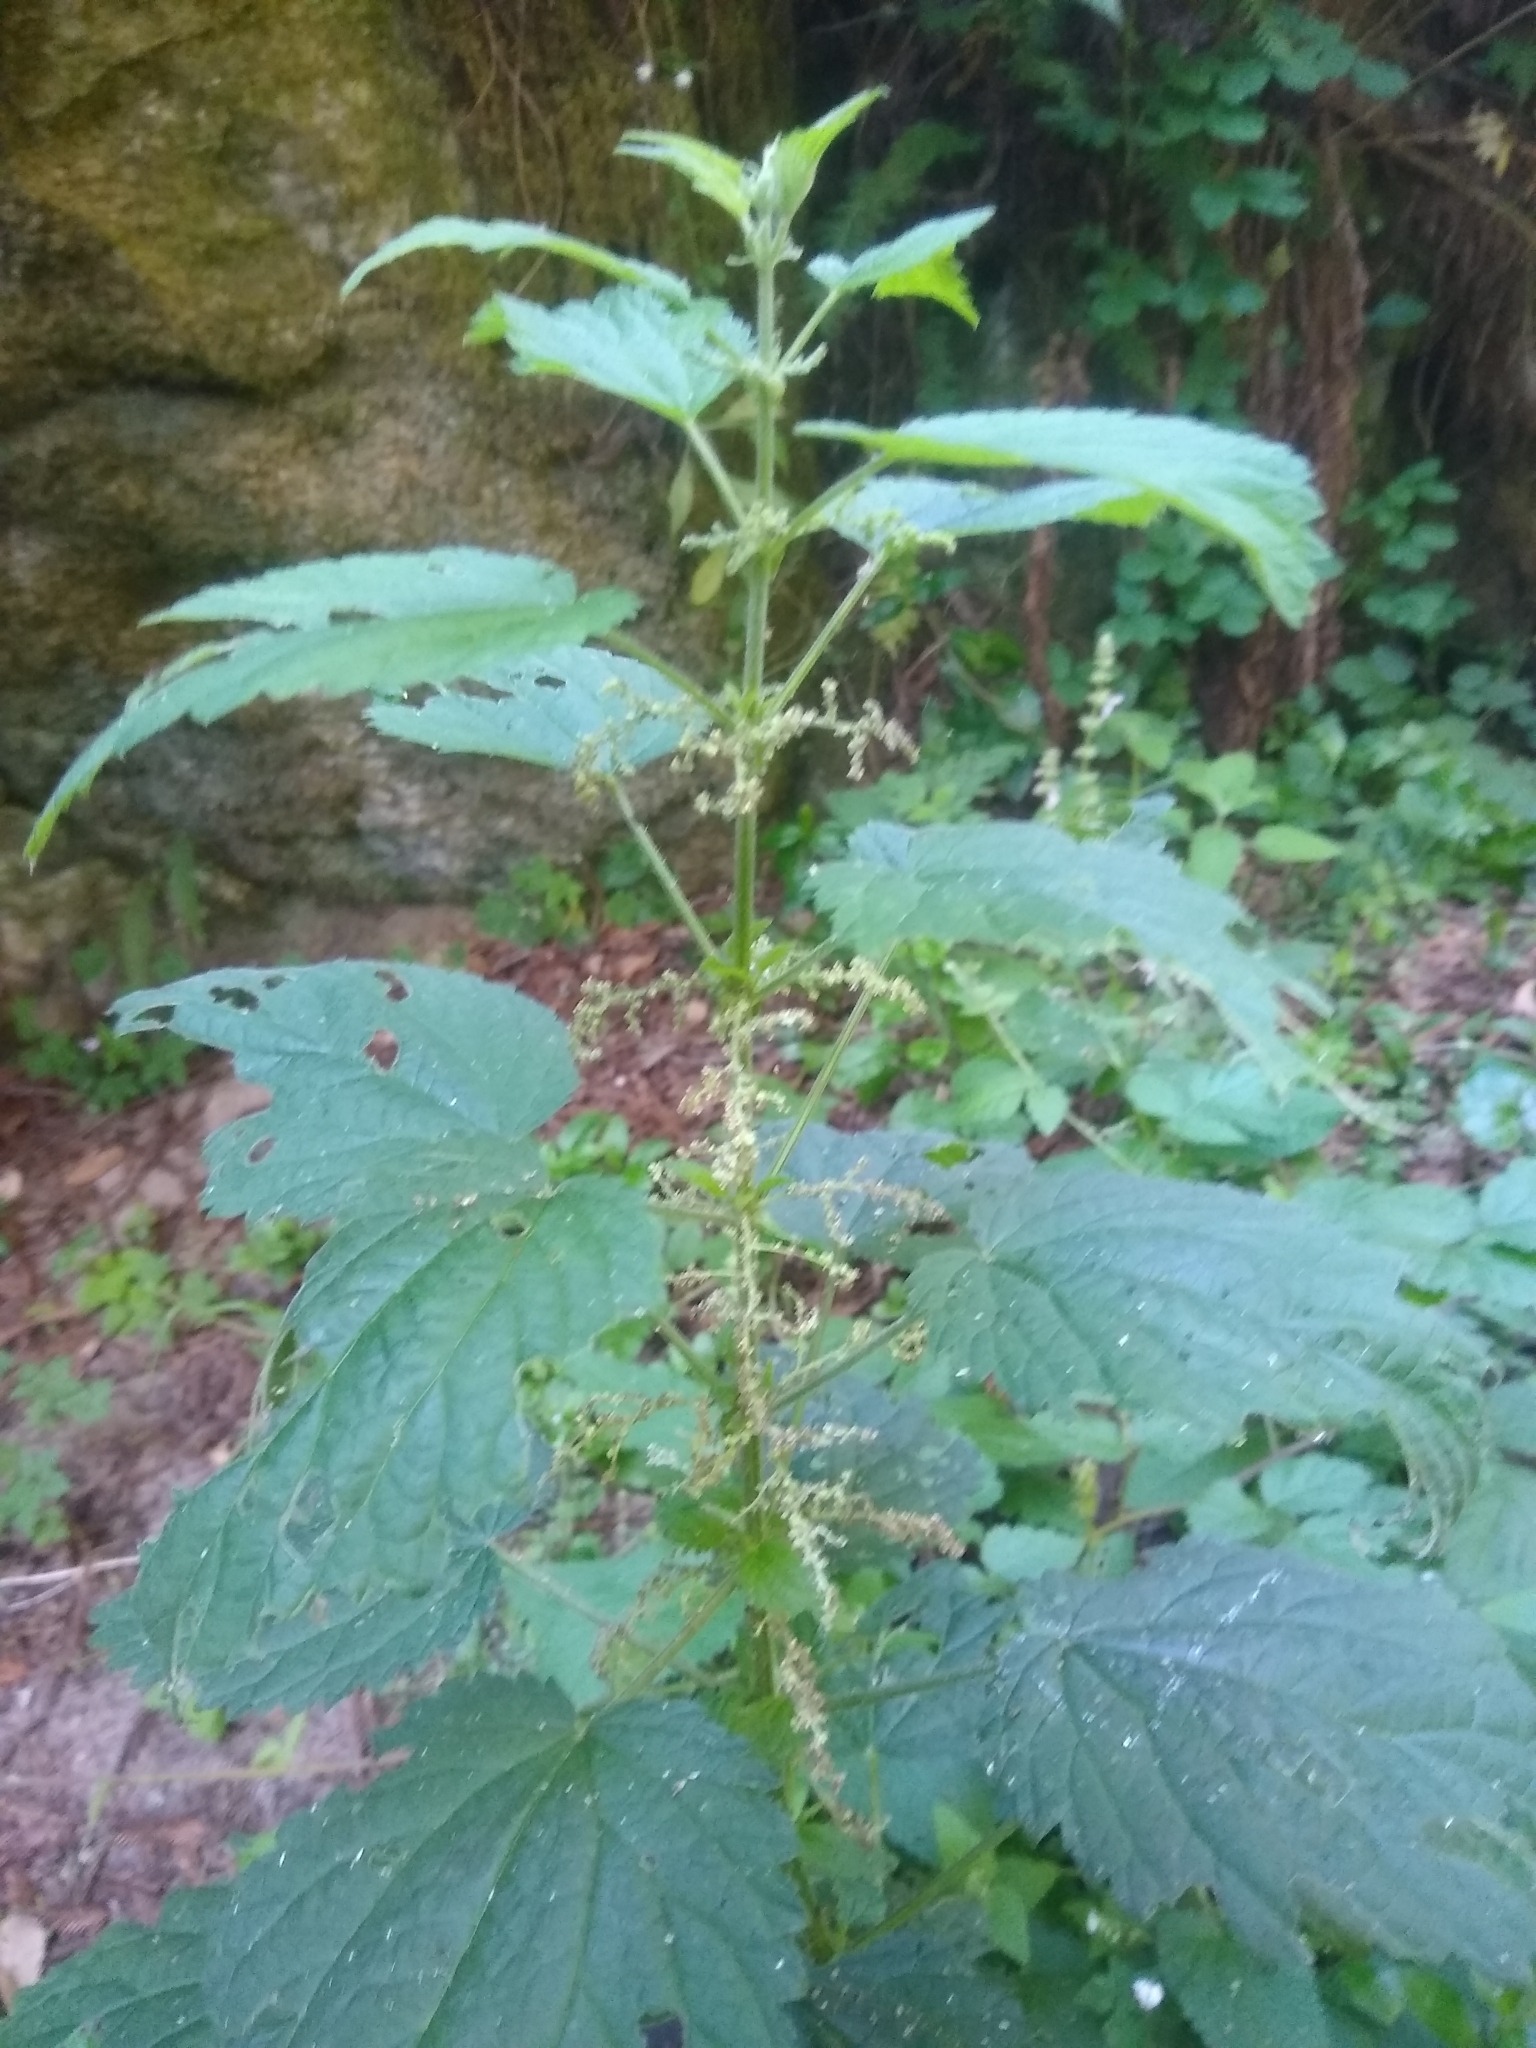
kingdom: Plantae
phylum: Tracheophyta
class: Magnoliopsida
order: Rosales
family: Urticaceae
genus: Urtica
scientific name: Urtica dioica
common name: Common nettle
